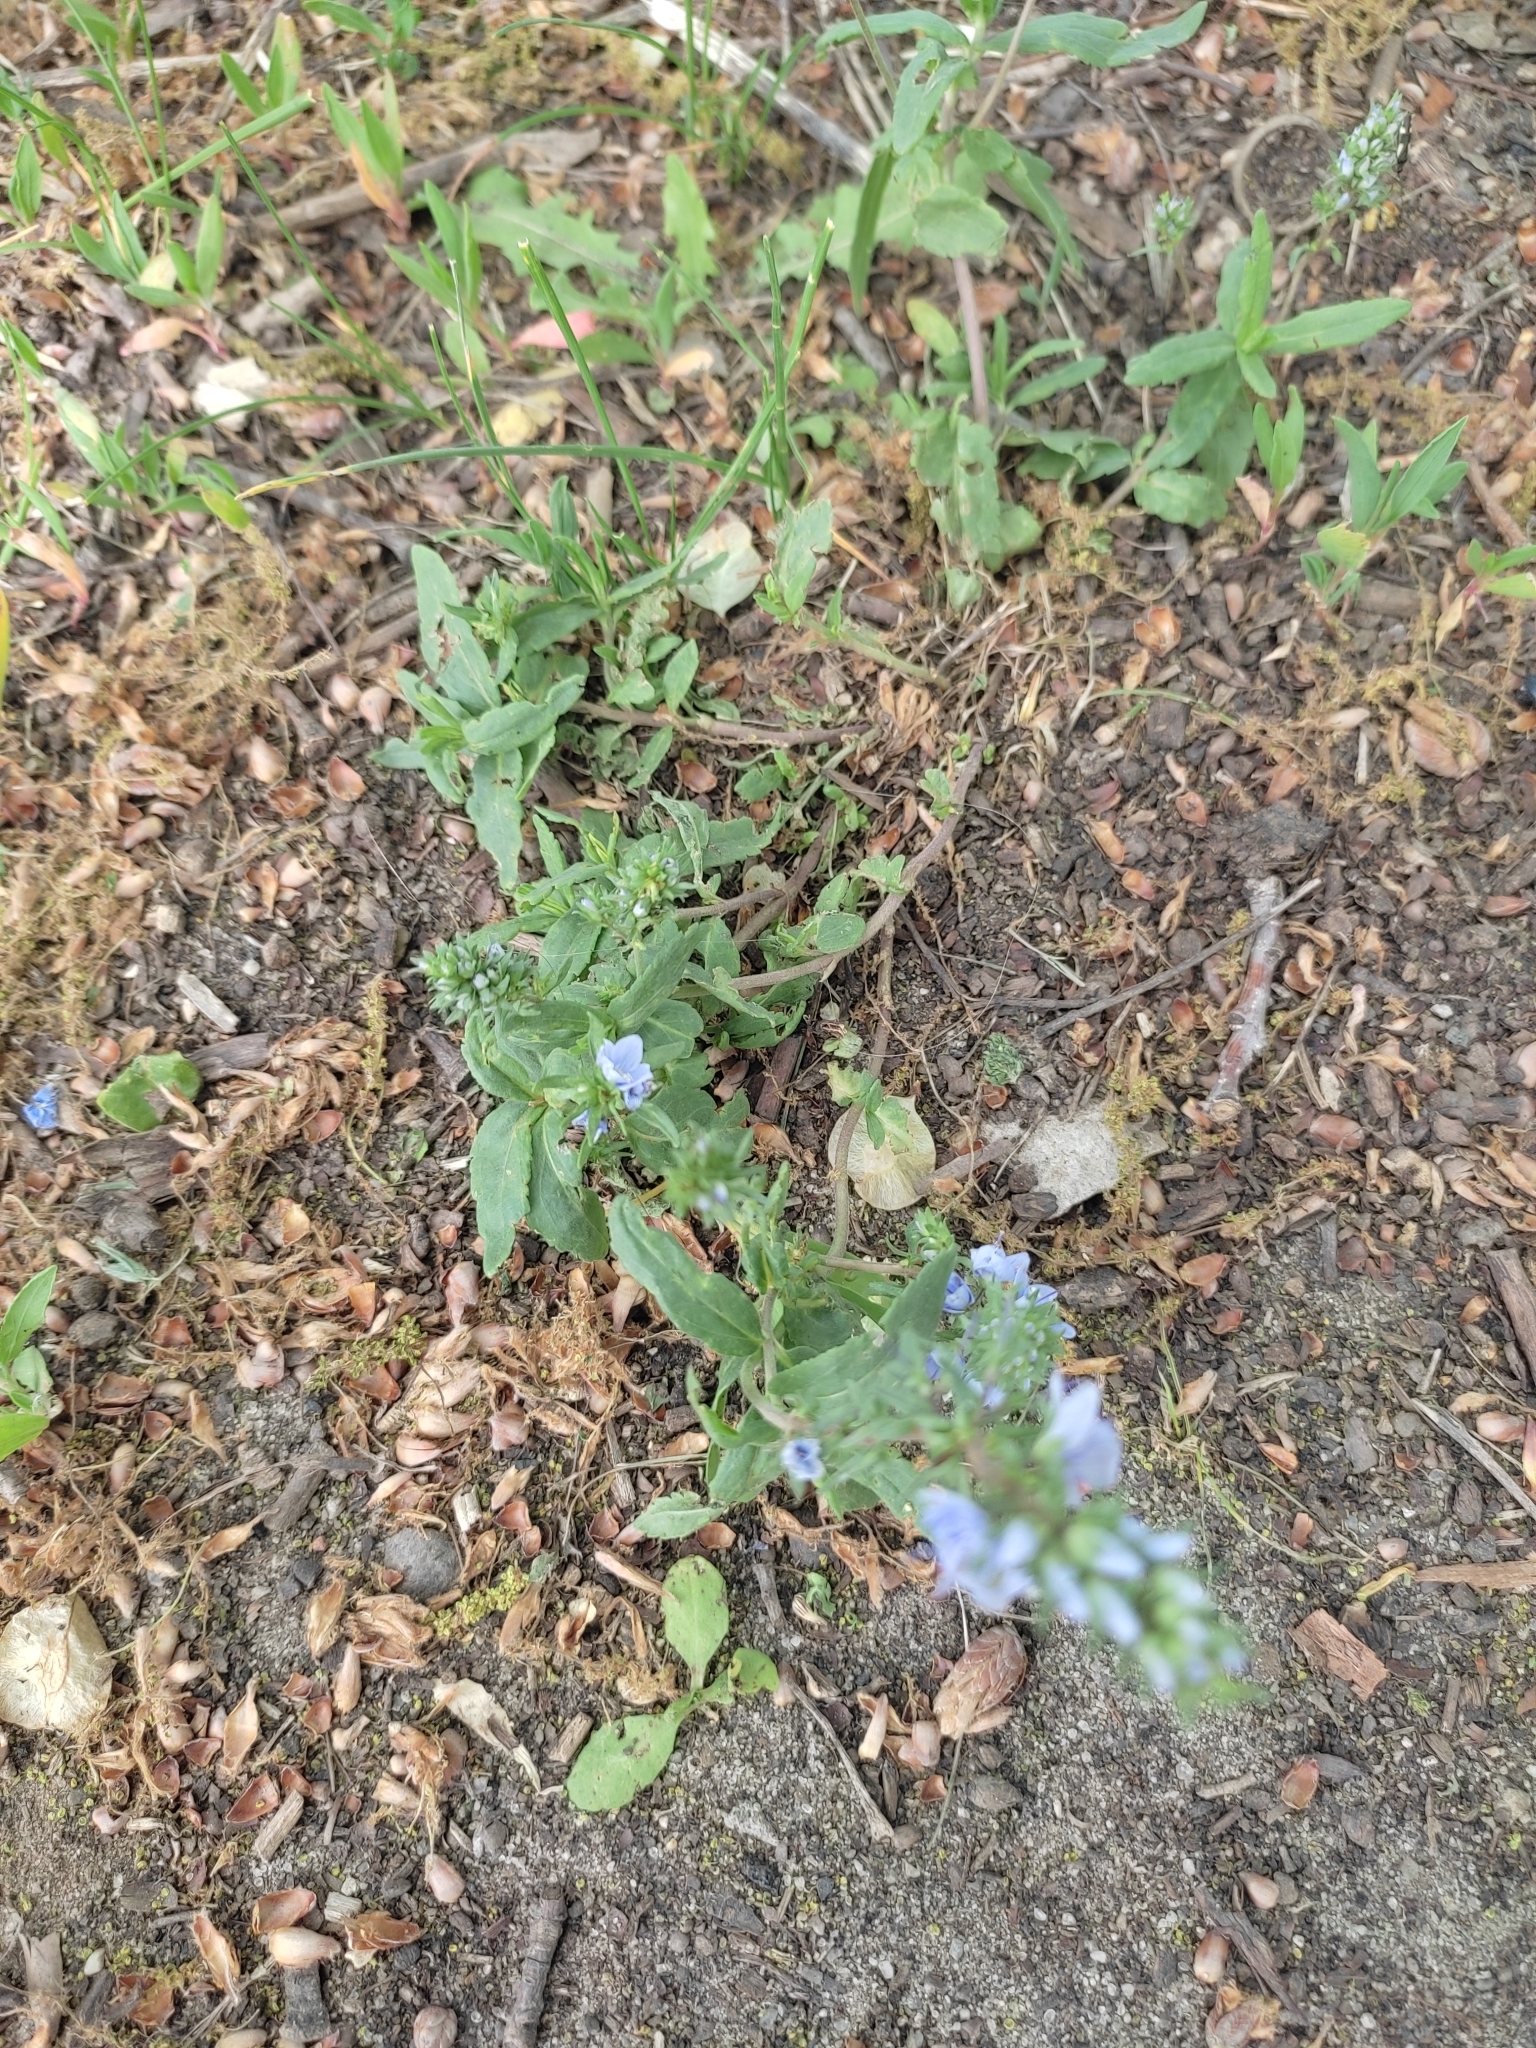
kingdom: Plantae
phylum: Tracheophyta
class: Magnoliopsida
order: Lamiales
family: Plantaginaceae
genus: Veronica
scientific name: Veronica prostrata
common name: Prostrate speedwell
